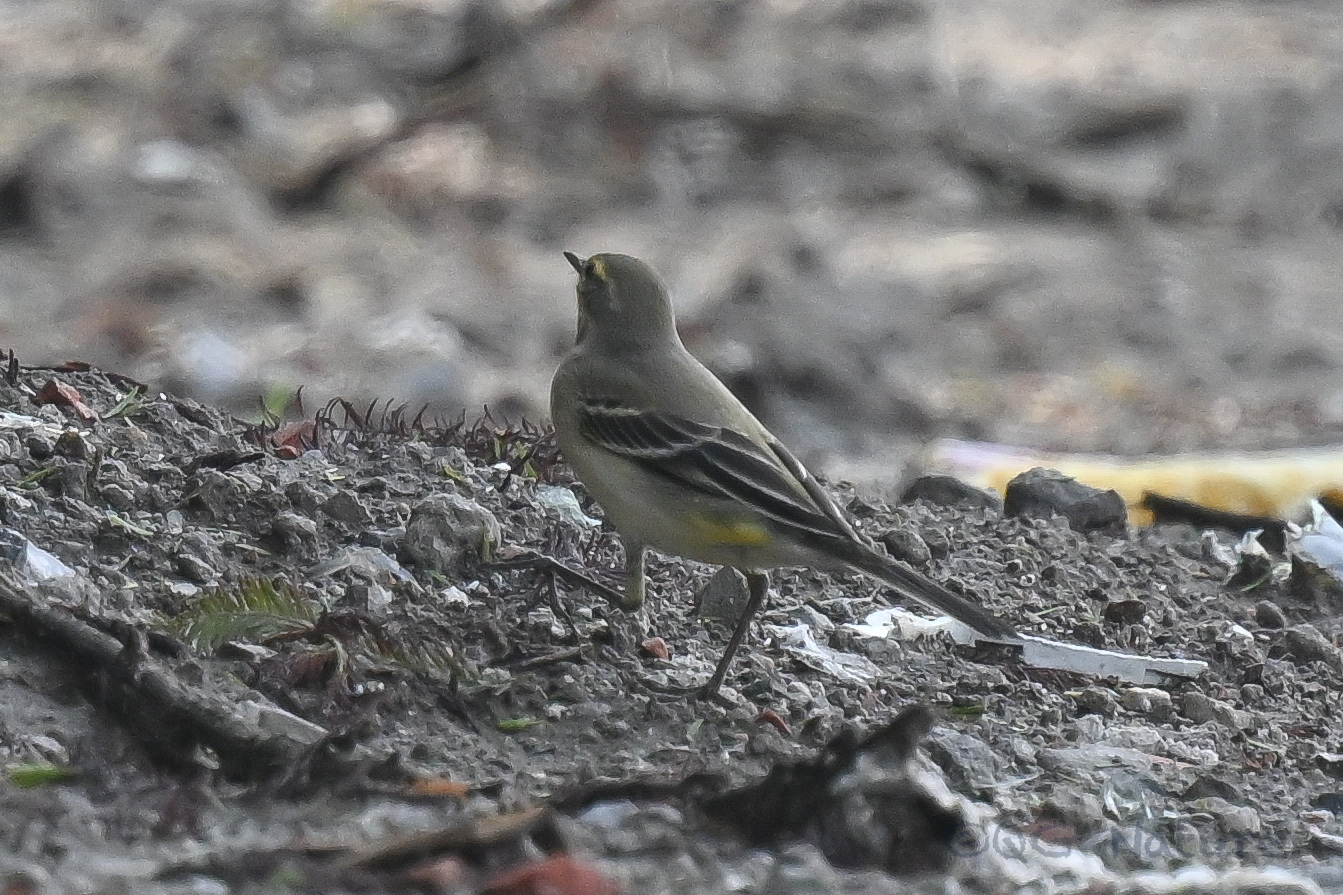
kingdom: Animalia
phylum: Chordata
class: Aves
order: Passeriformes
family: Motacillidae
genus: Motacilla
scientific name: Motacilla tschutschensis
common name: Eastern yellow wagtail
